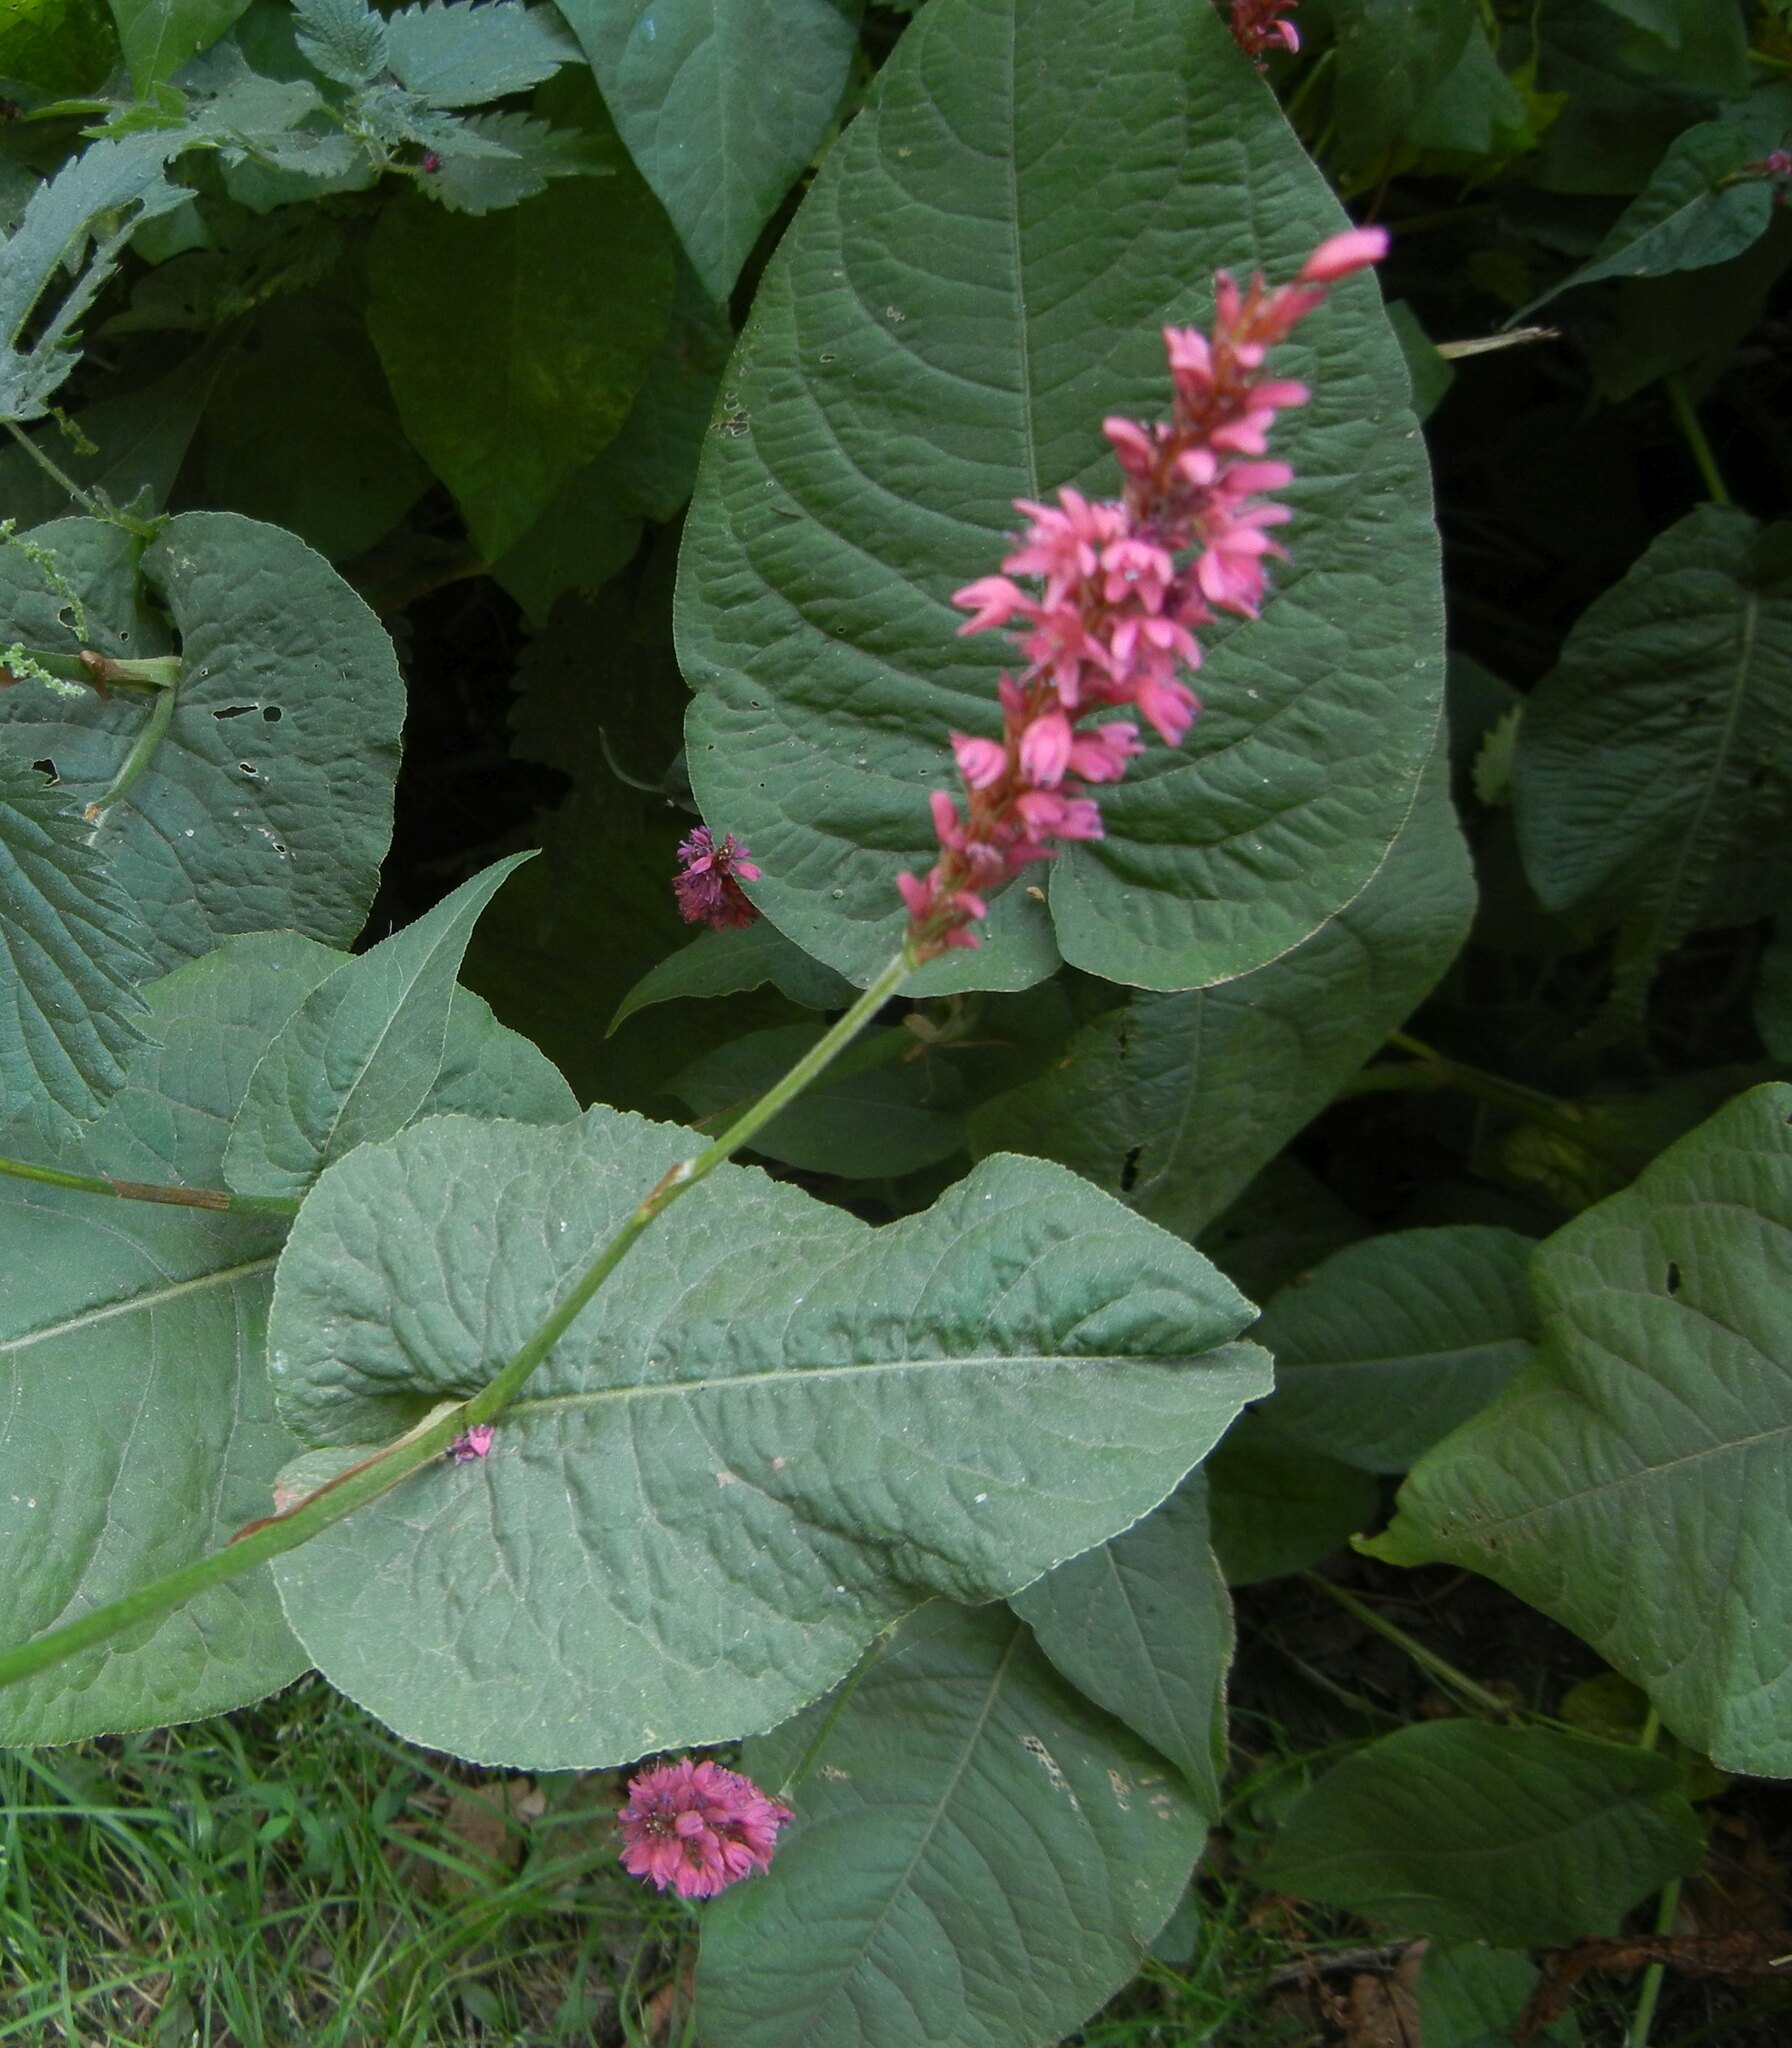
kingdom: Plantae
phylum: Tracheophyta
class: Magnoliopsida
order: Caryophyllales
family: Polygonaceae
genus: Bistorta
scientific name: Bistorta amplexicaulis
